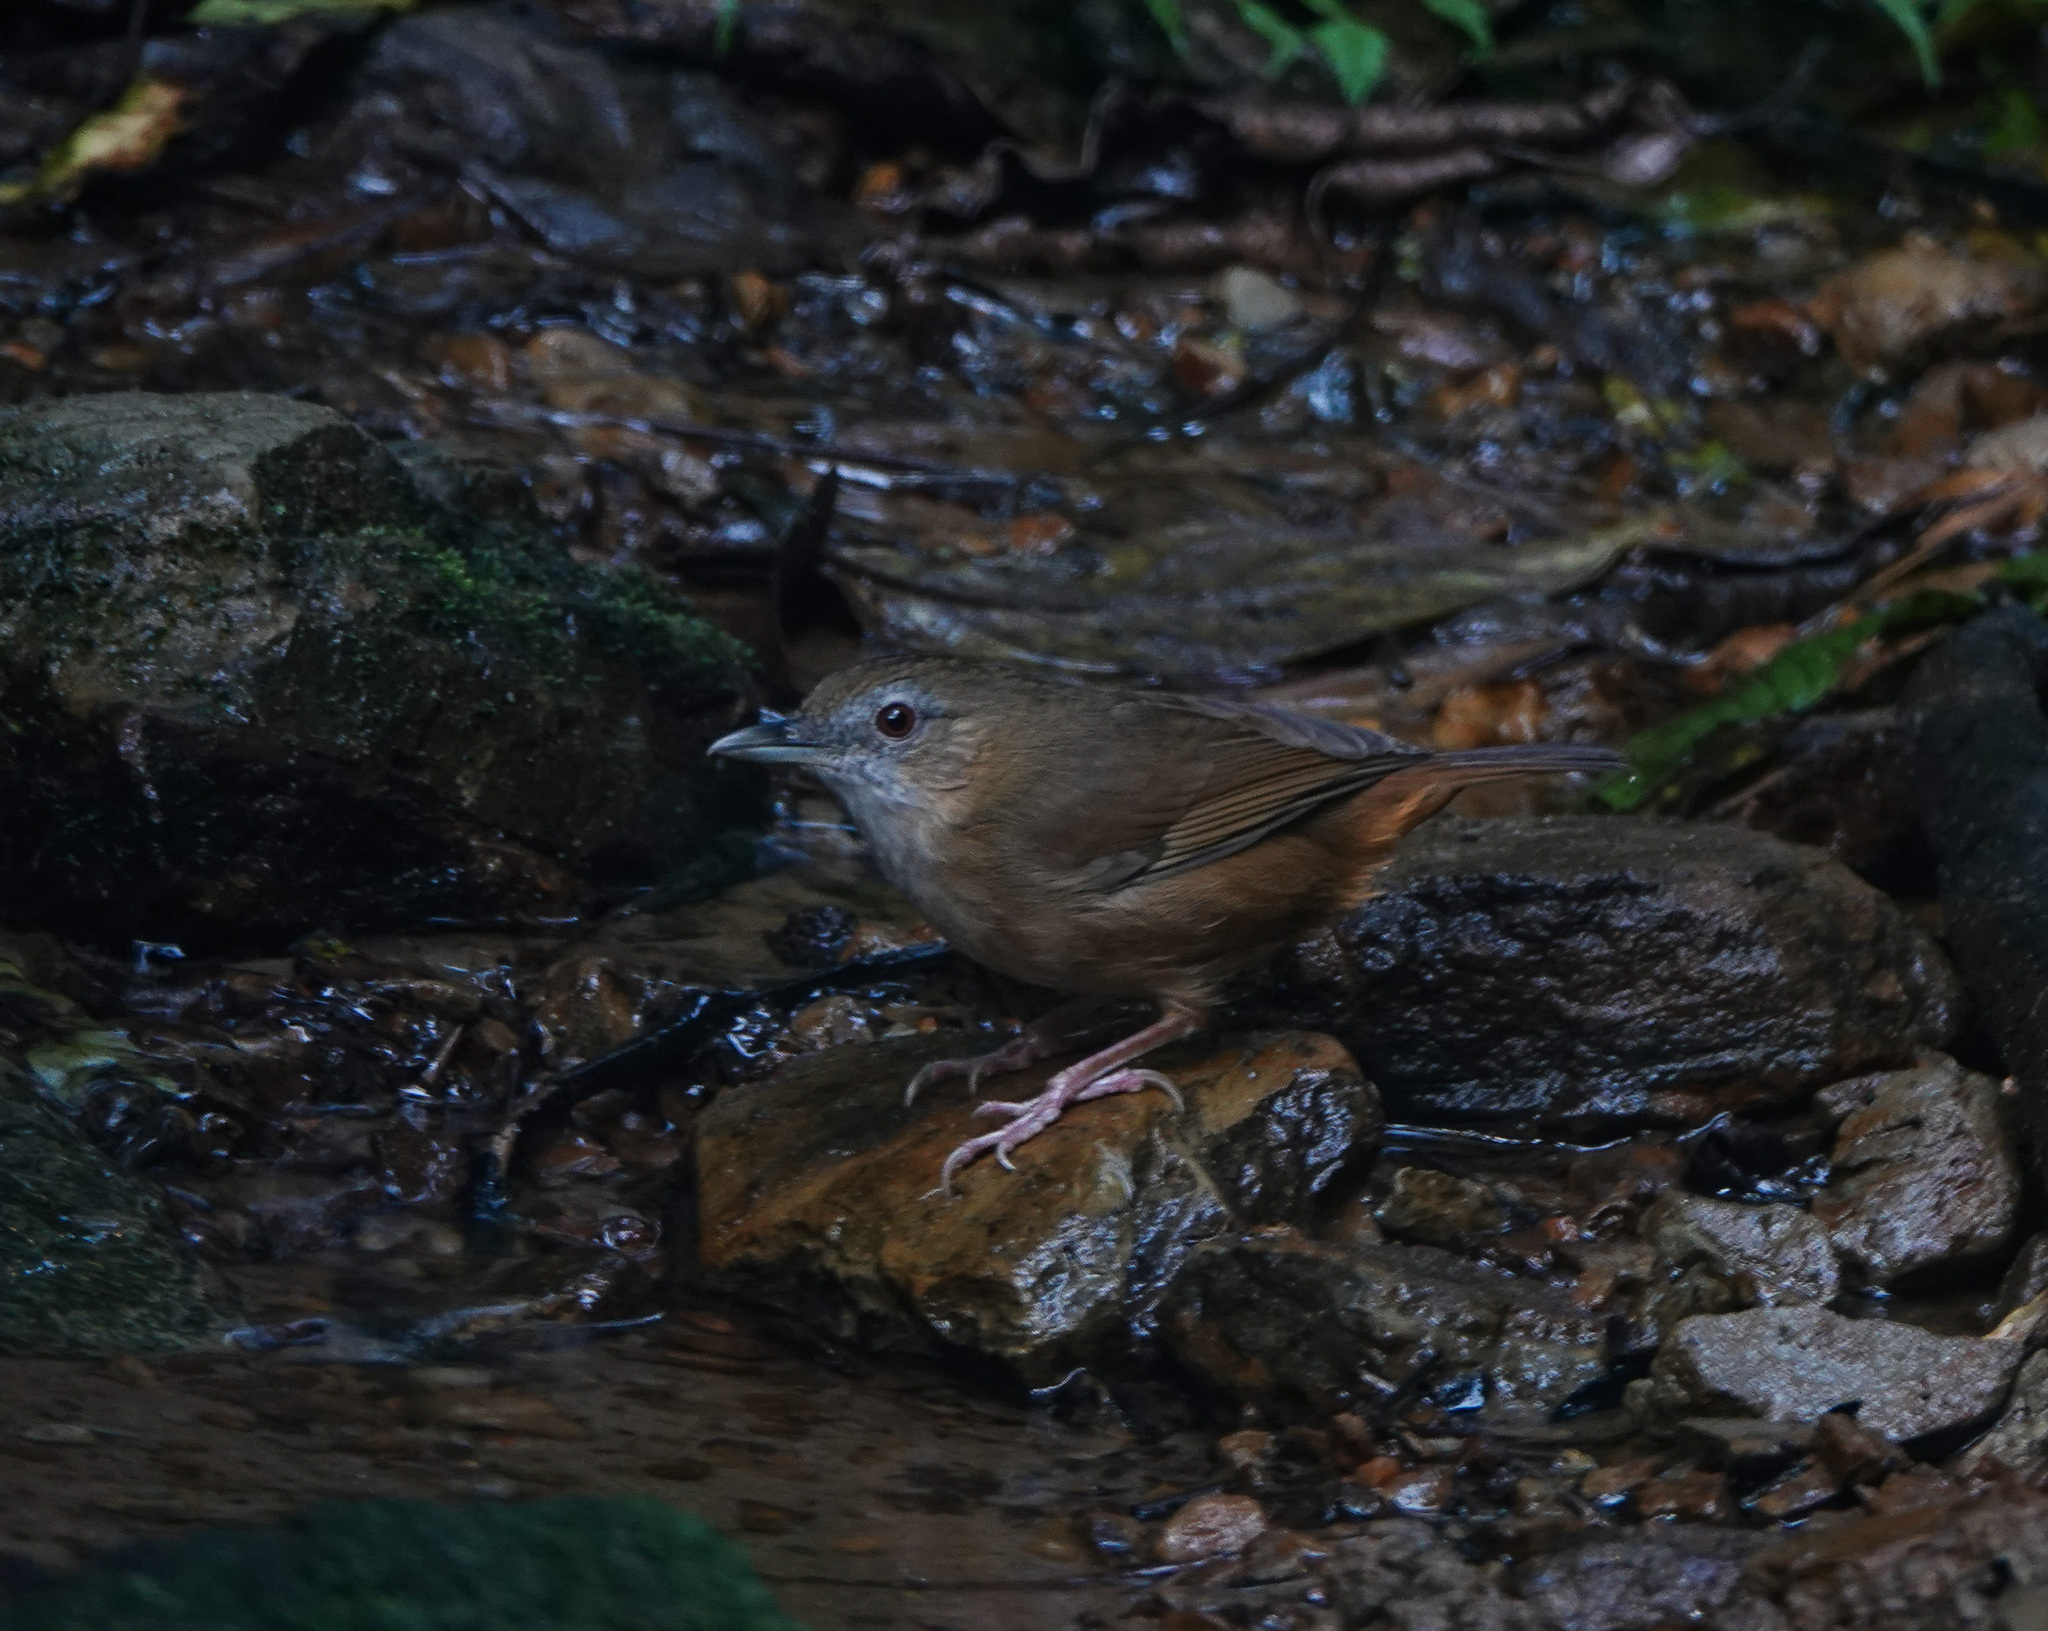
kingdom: Animalia
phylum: Chordata
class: Aves
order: Passeriformes
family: Pellorneidae
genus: Malacocincla
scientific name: Malacocincla abbotti
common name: Abbott's babbler
